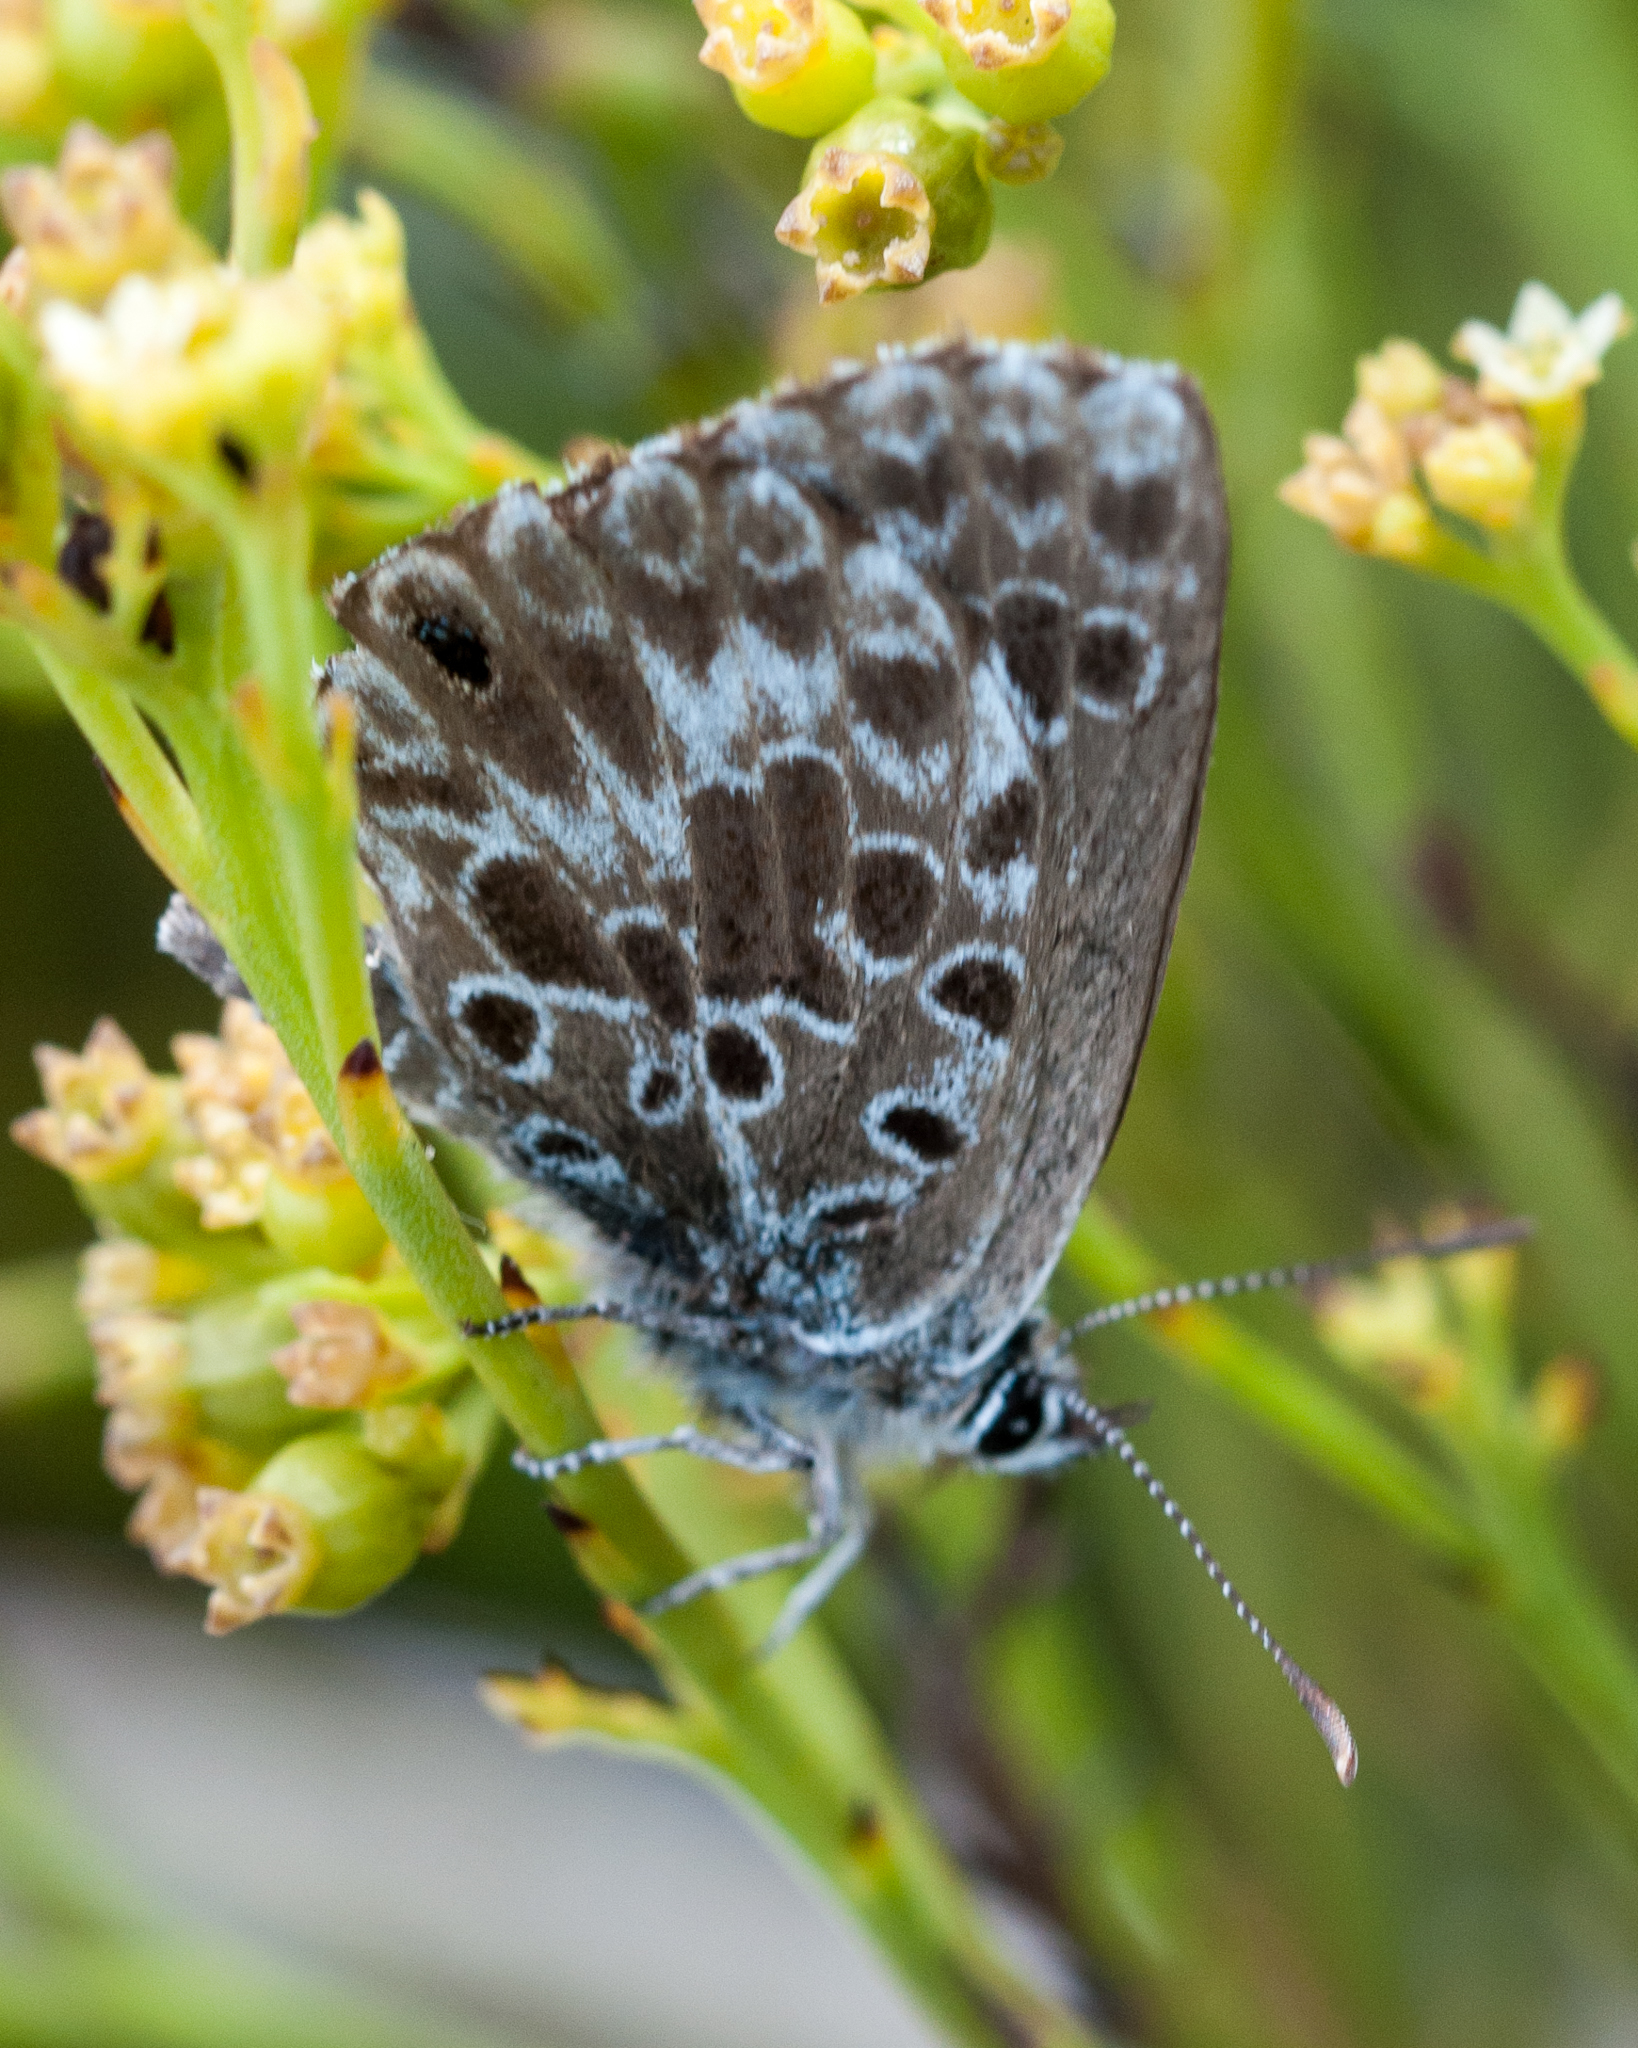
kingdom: Animalia
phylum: Arthropoda
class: Insecta
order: Lepidoptera
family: Lycaenidae
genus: Lepidochrysops
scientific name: Lepidochrysops littoralis
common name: Coastal blue
